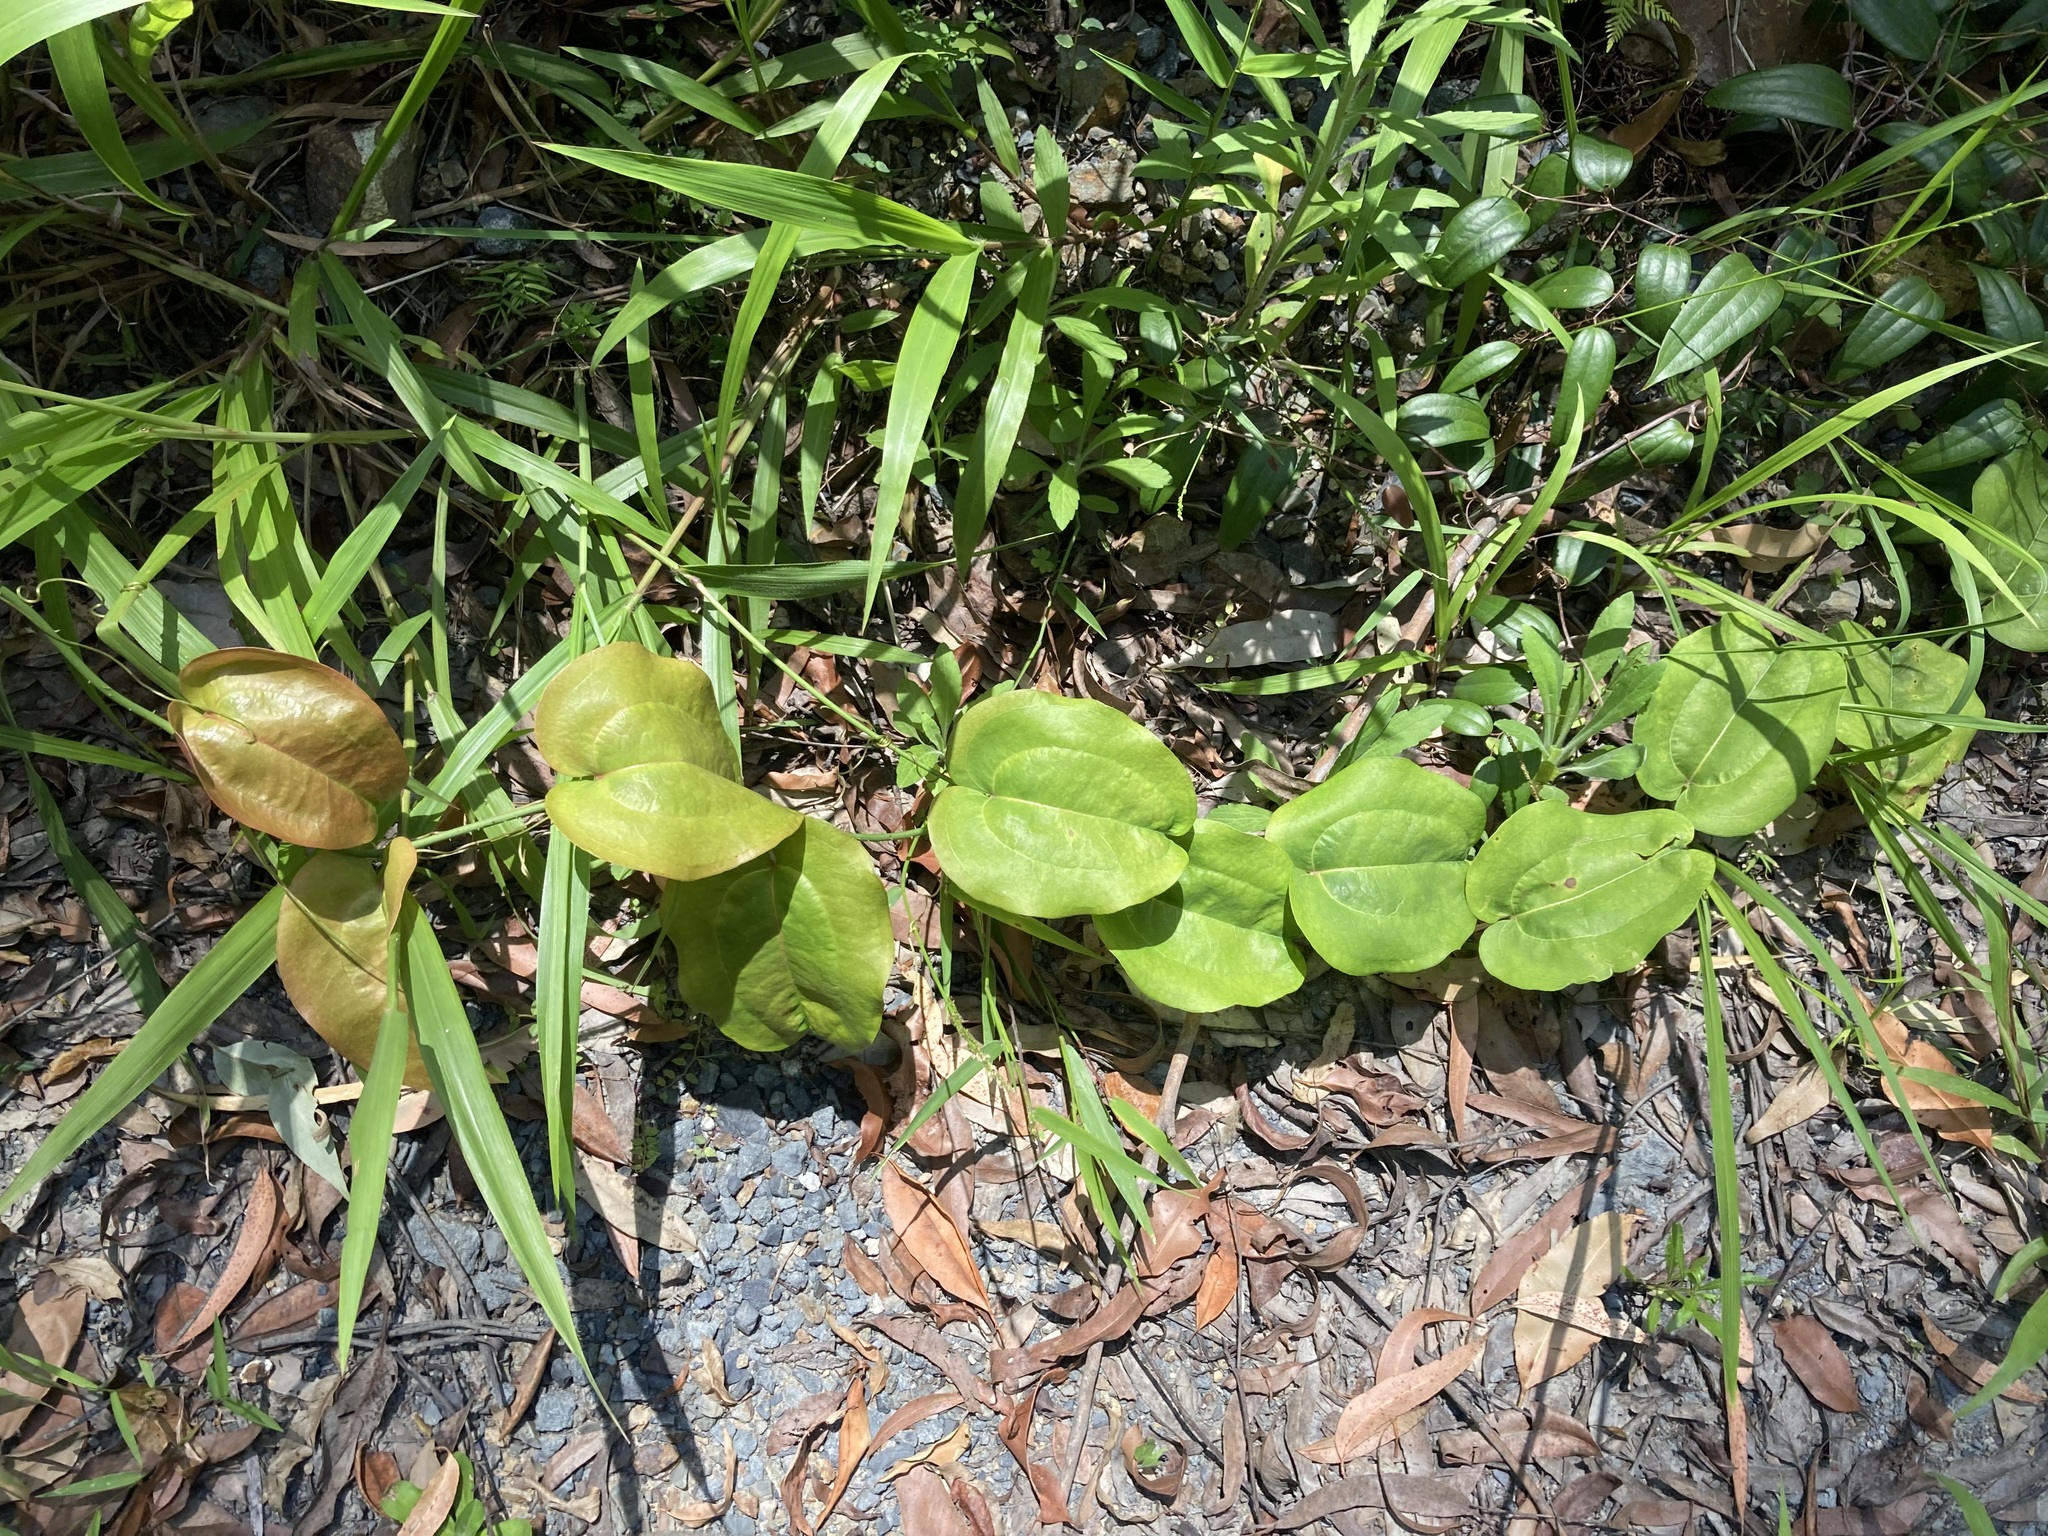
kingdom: Plantae
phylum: Tracheophyta
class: Liliopsida
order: Liliales
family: Smilacaceae
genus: Smilax
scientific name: Smilax australis
